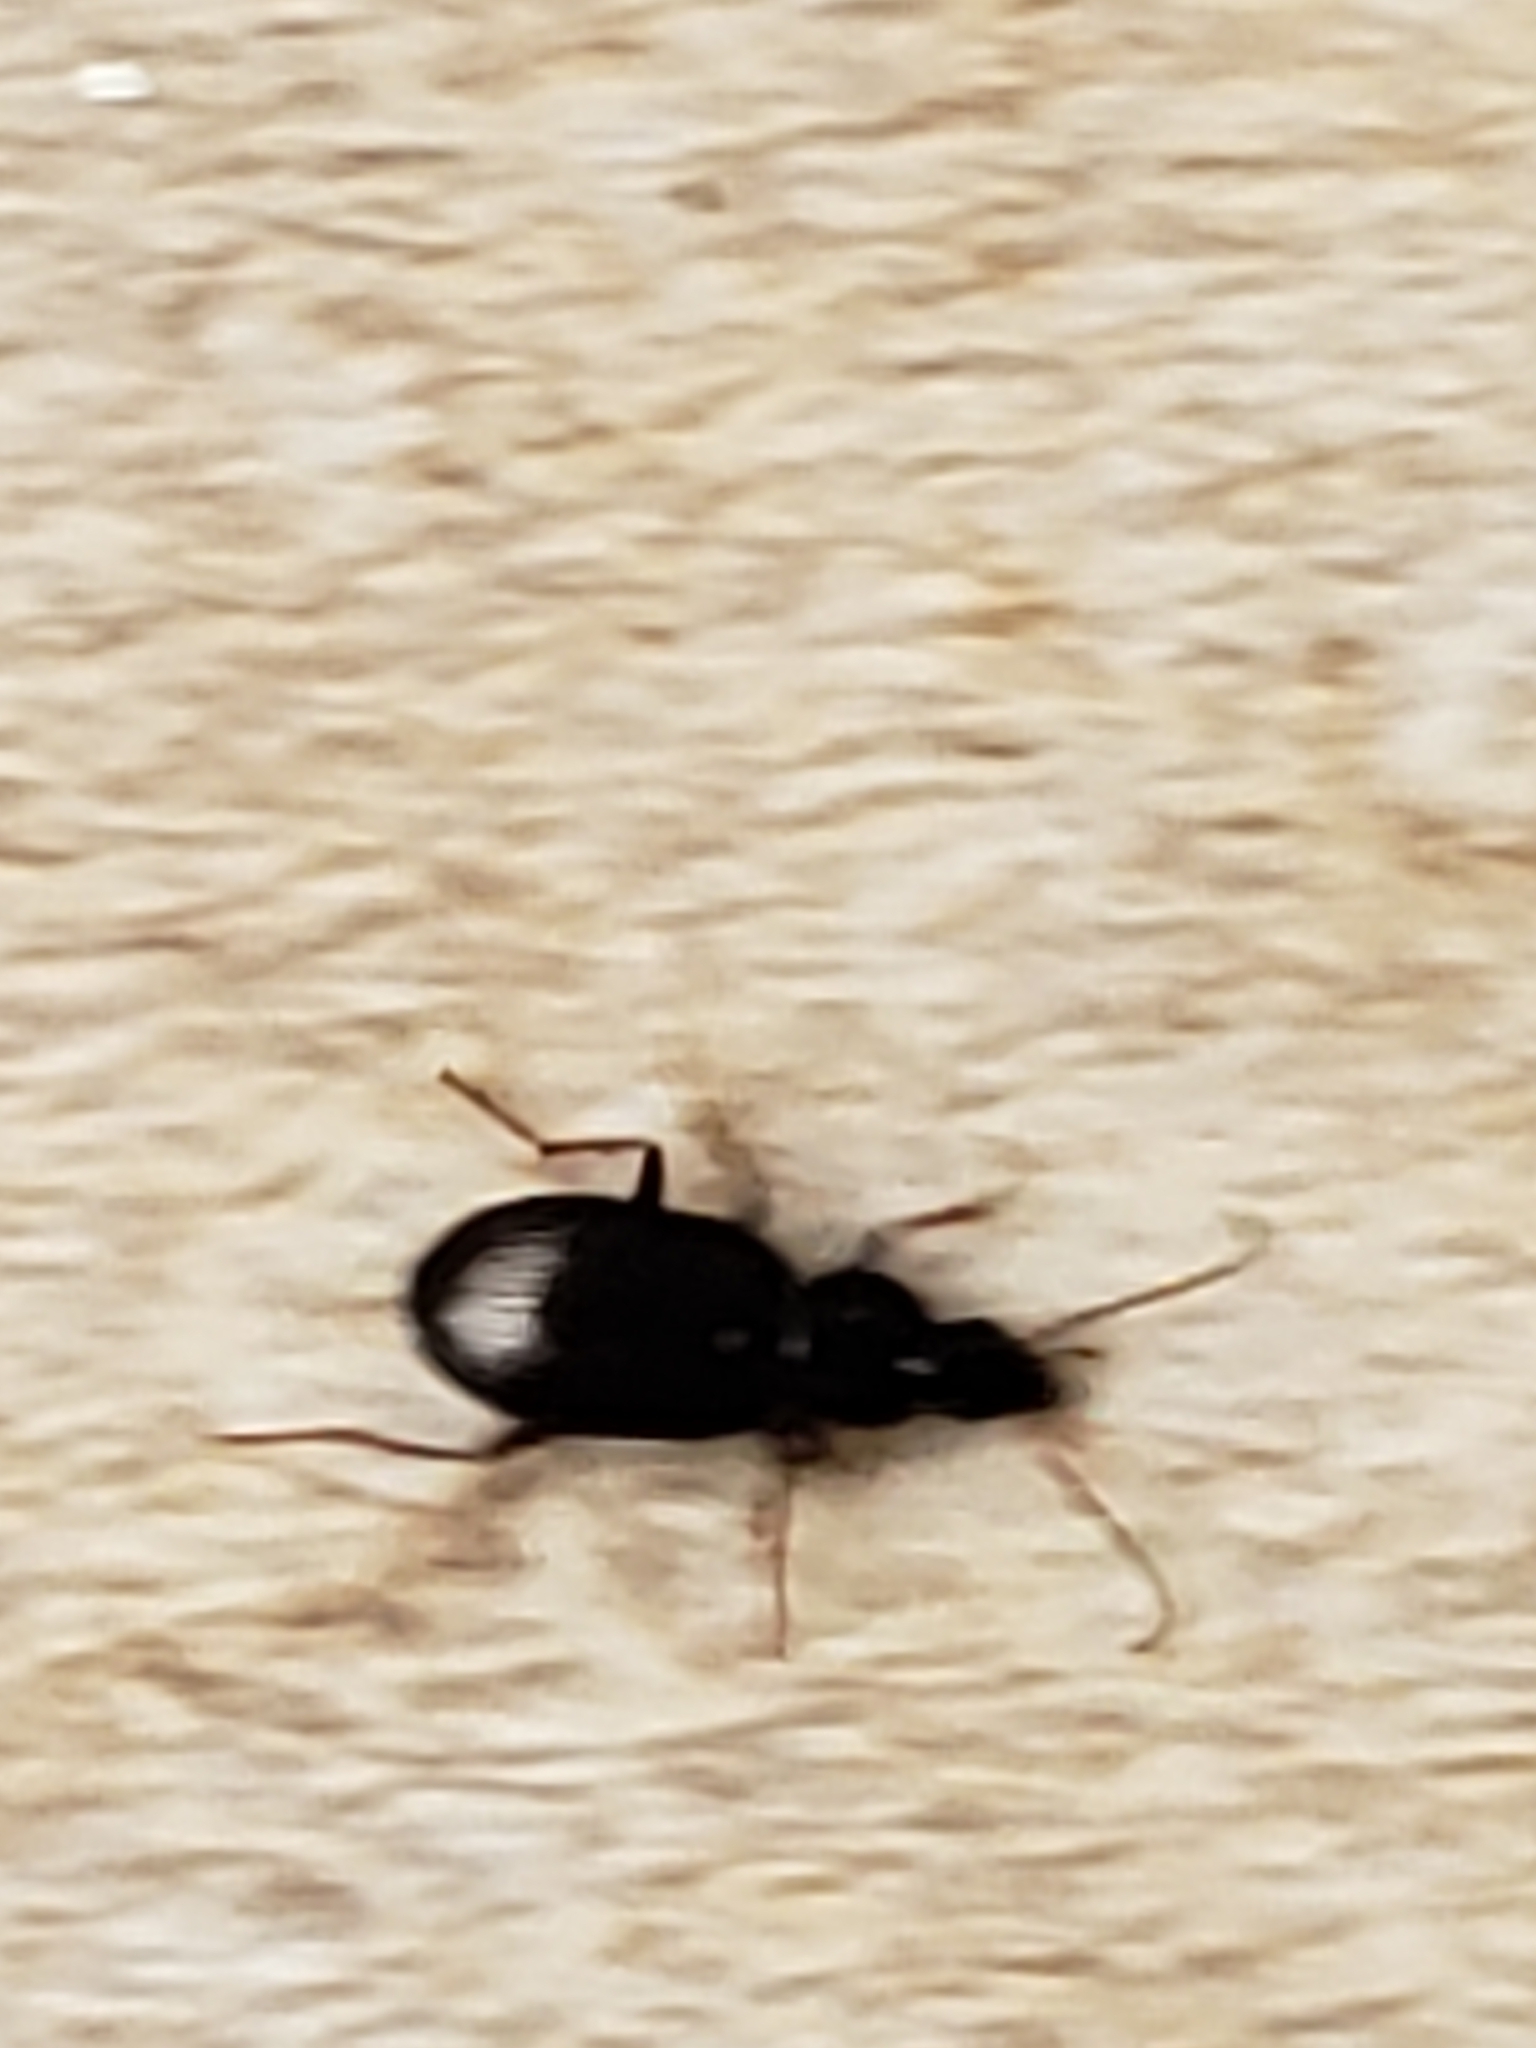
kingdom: Animalia
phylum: Arthropoda
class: Insecta
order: Coleoptera
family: Carabidae
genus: Agonum
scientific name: Agonum punctiforme
